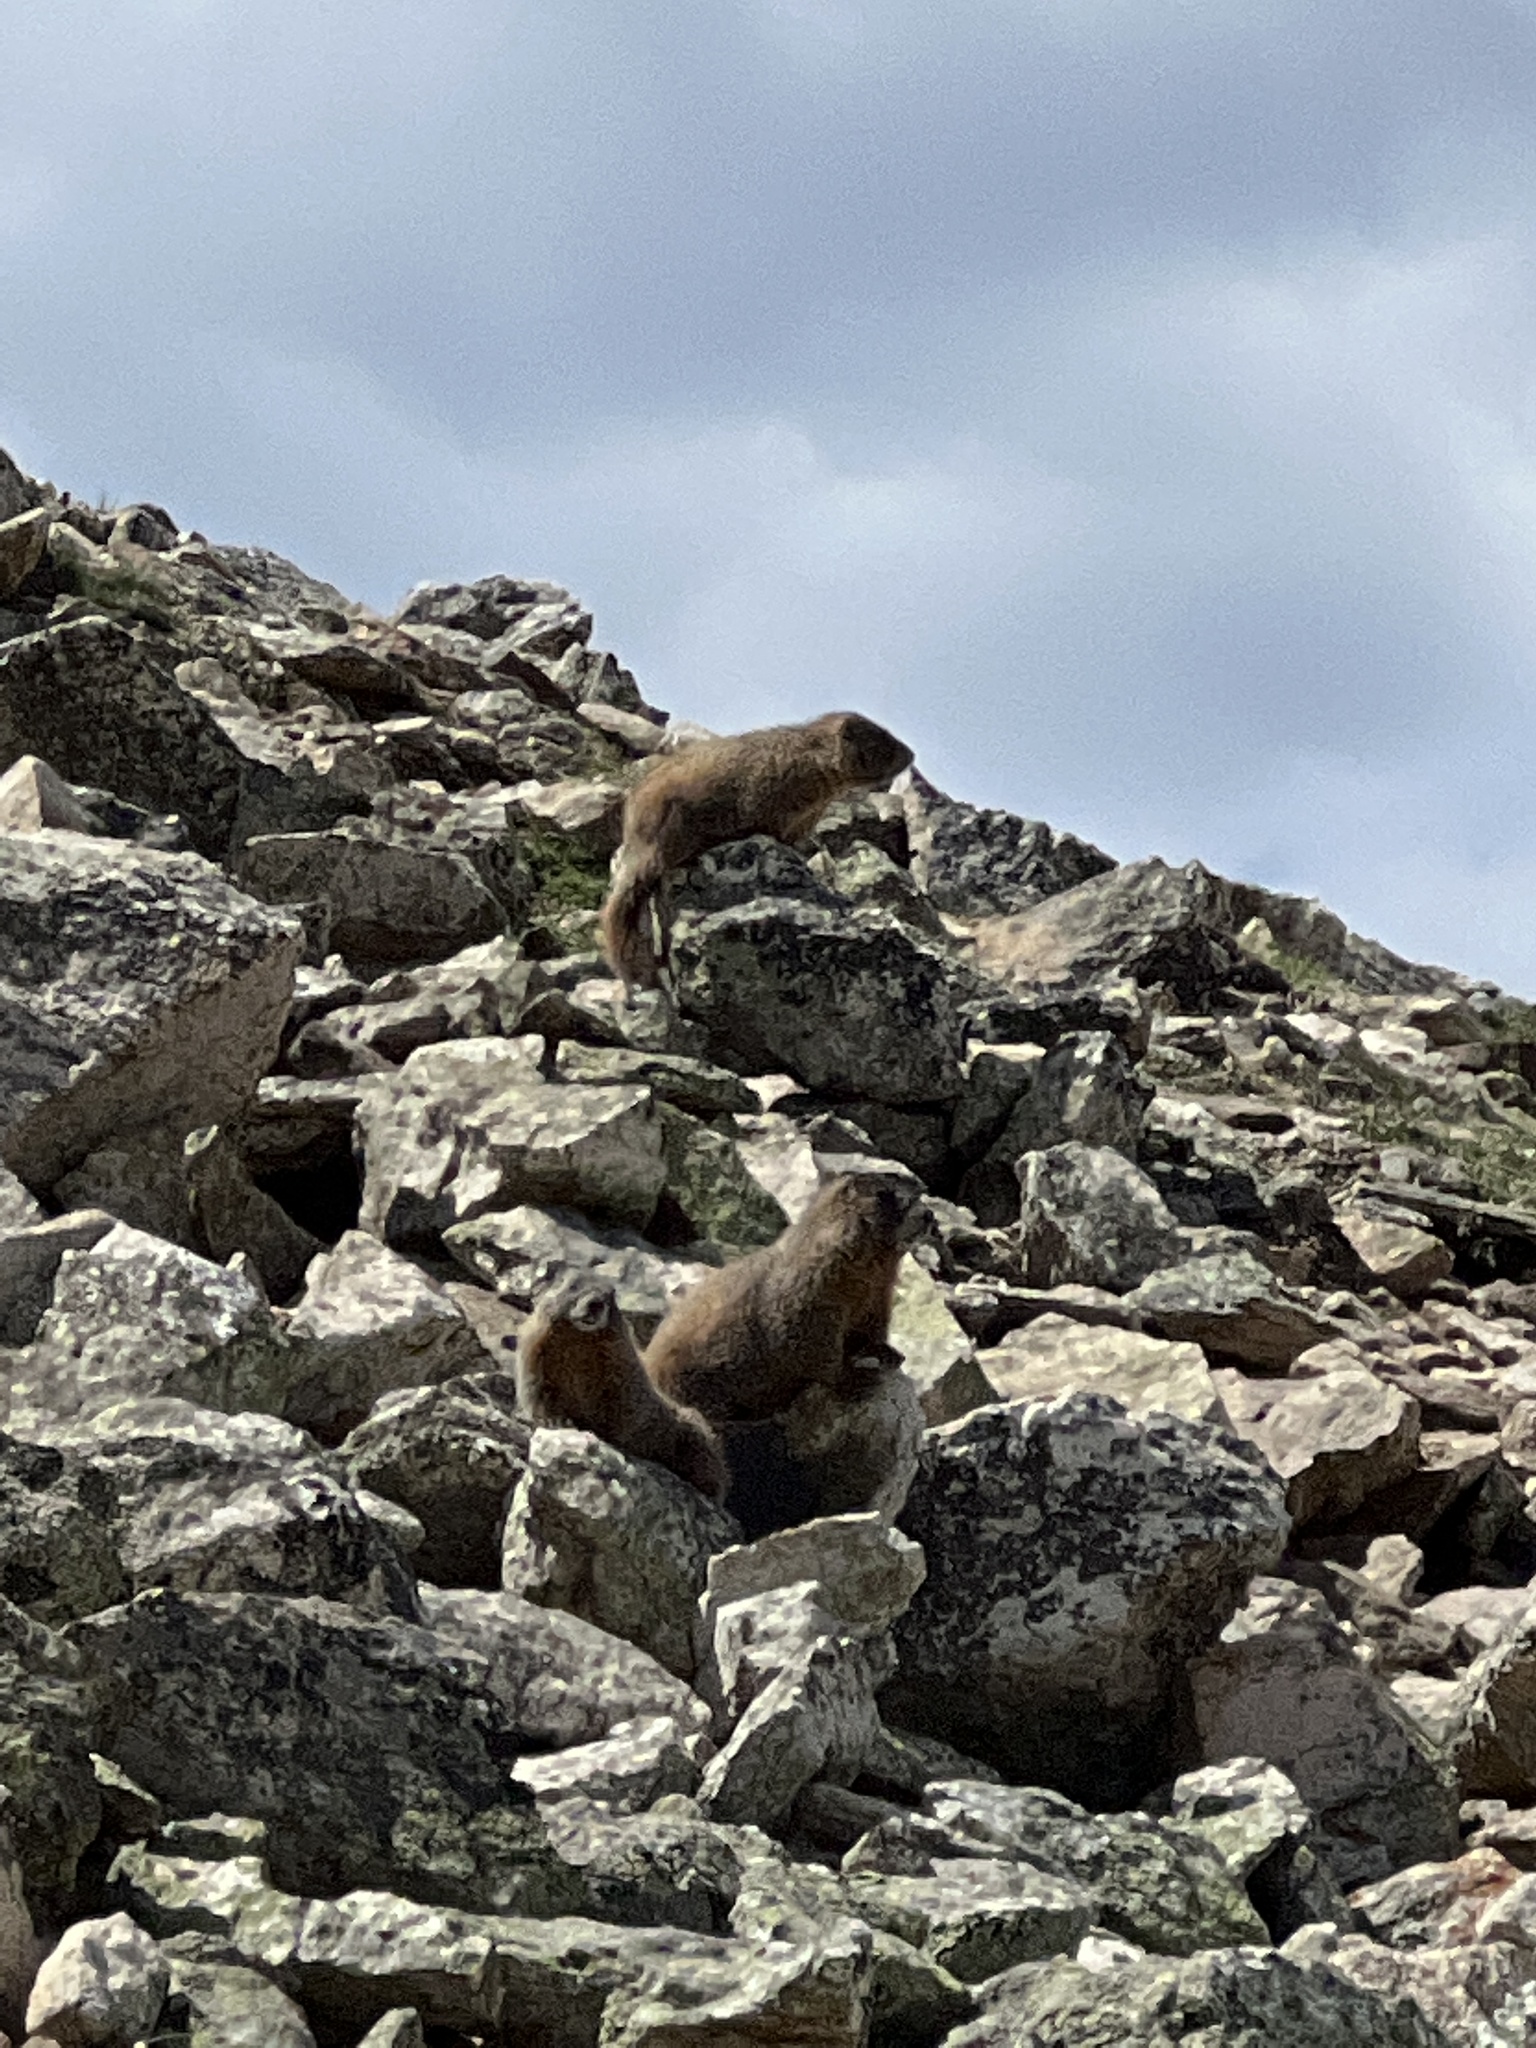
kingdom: Animalia
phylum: Chordata
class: Mammalia
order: Rodentia
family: Sciuridae
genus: Marmota
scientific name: Marmota flaviventris
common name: Yellow-bellied marmot
